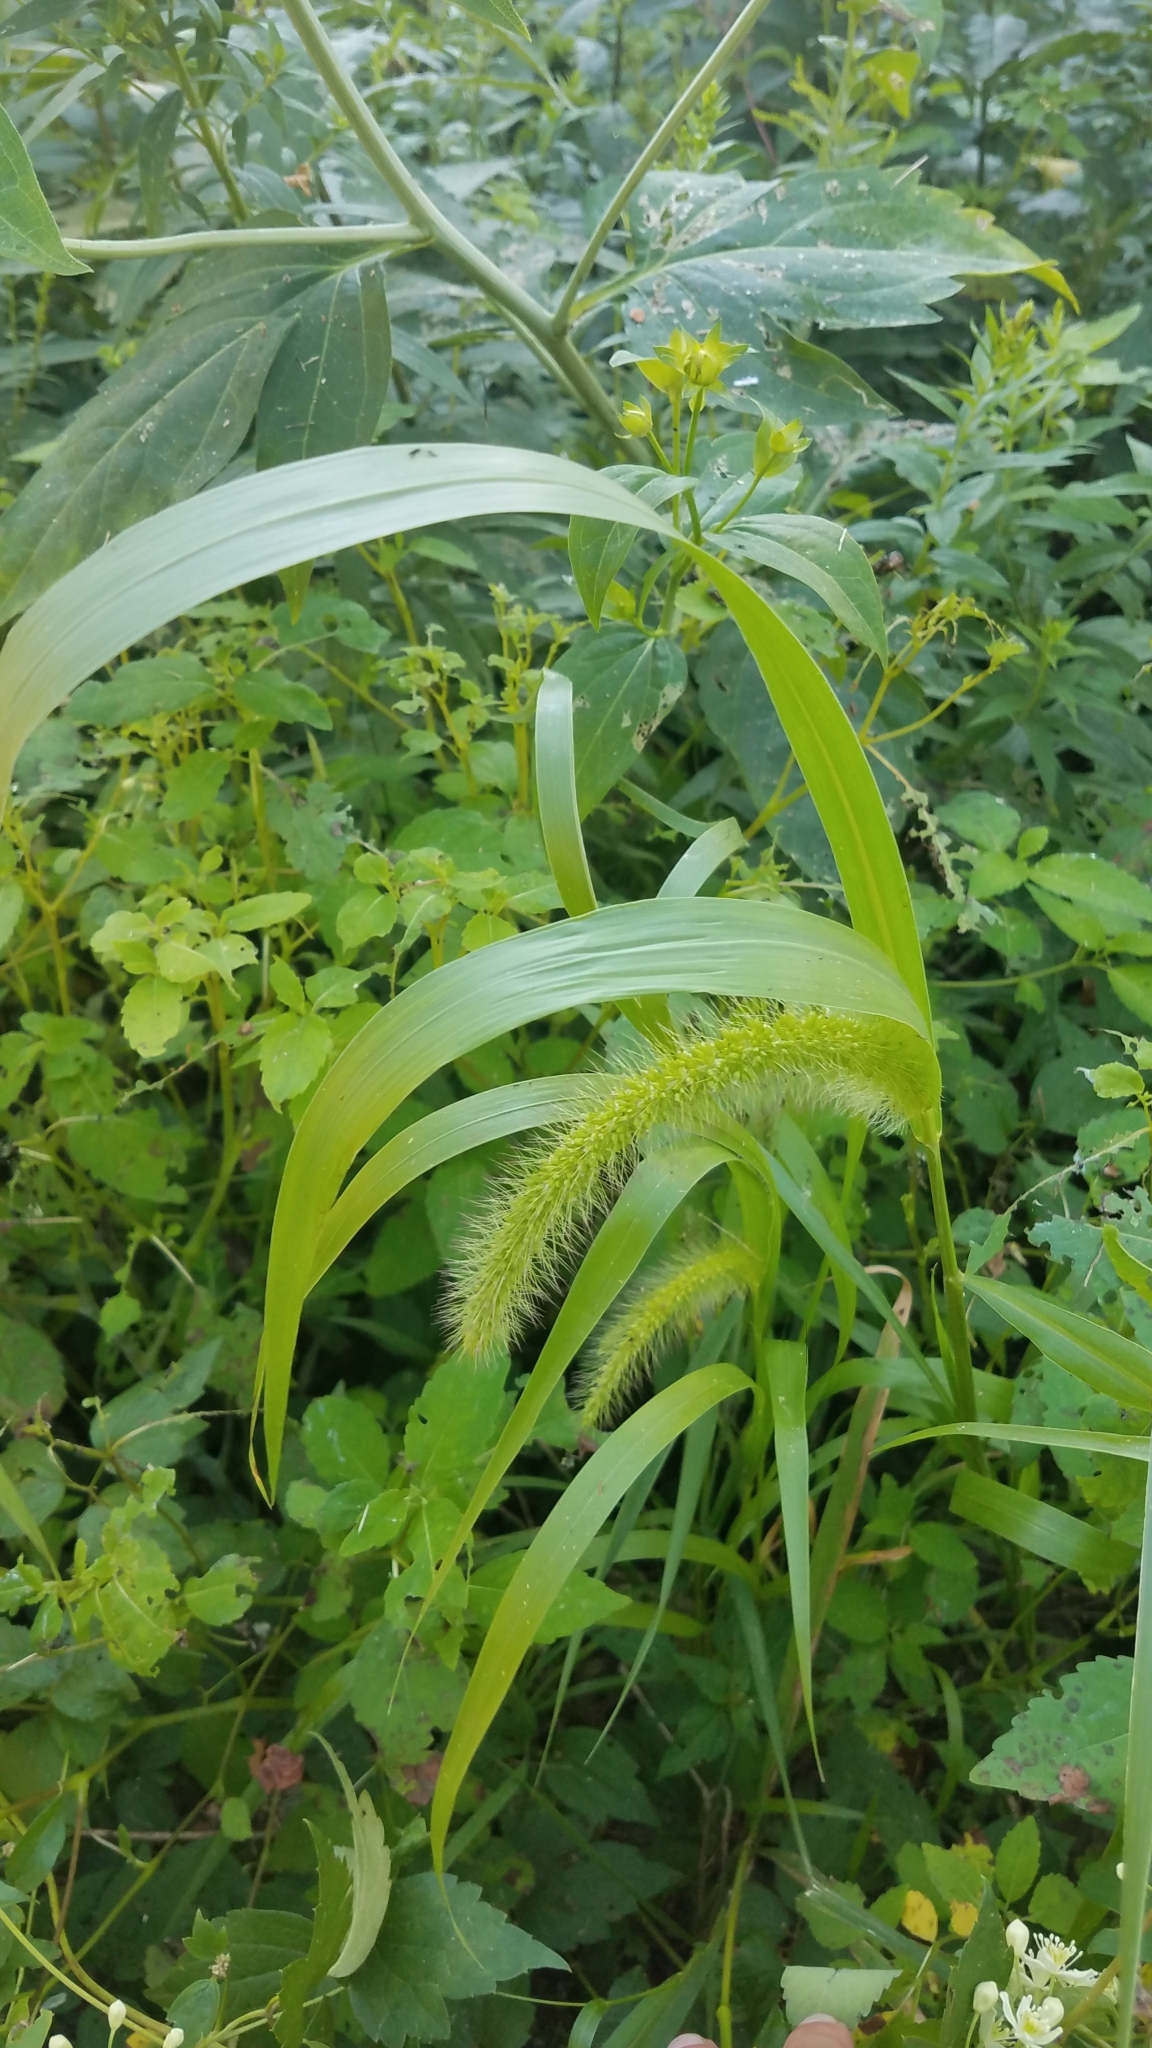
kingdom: Plantae
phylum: Tracheophyta
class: Liliopsida
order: Poales
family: Poaceae
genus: Setaria
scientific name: Setaria faberi
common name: Nodding bristle-grass
